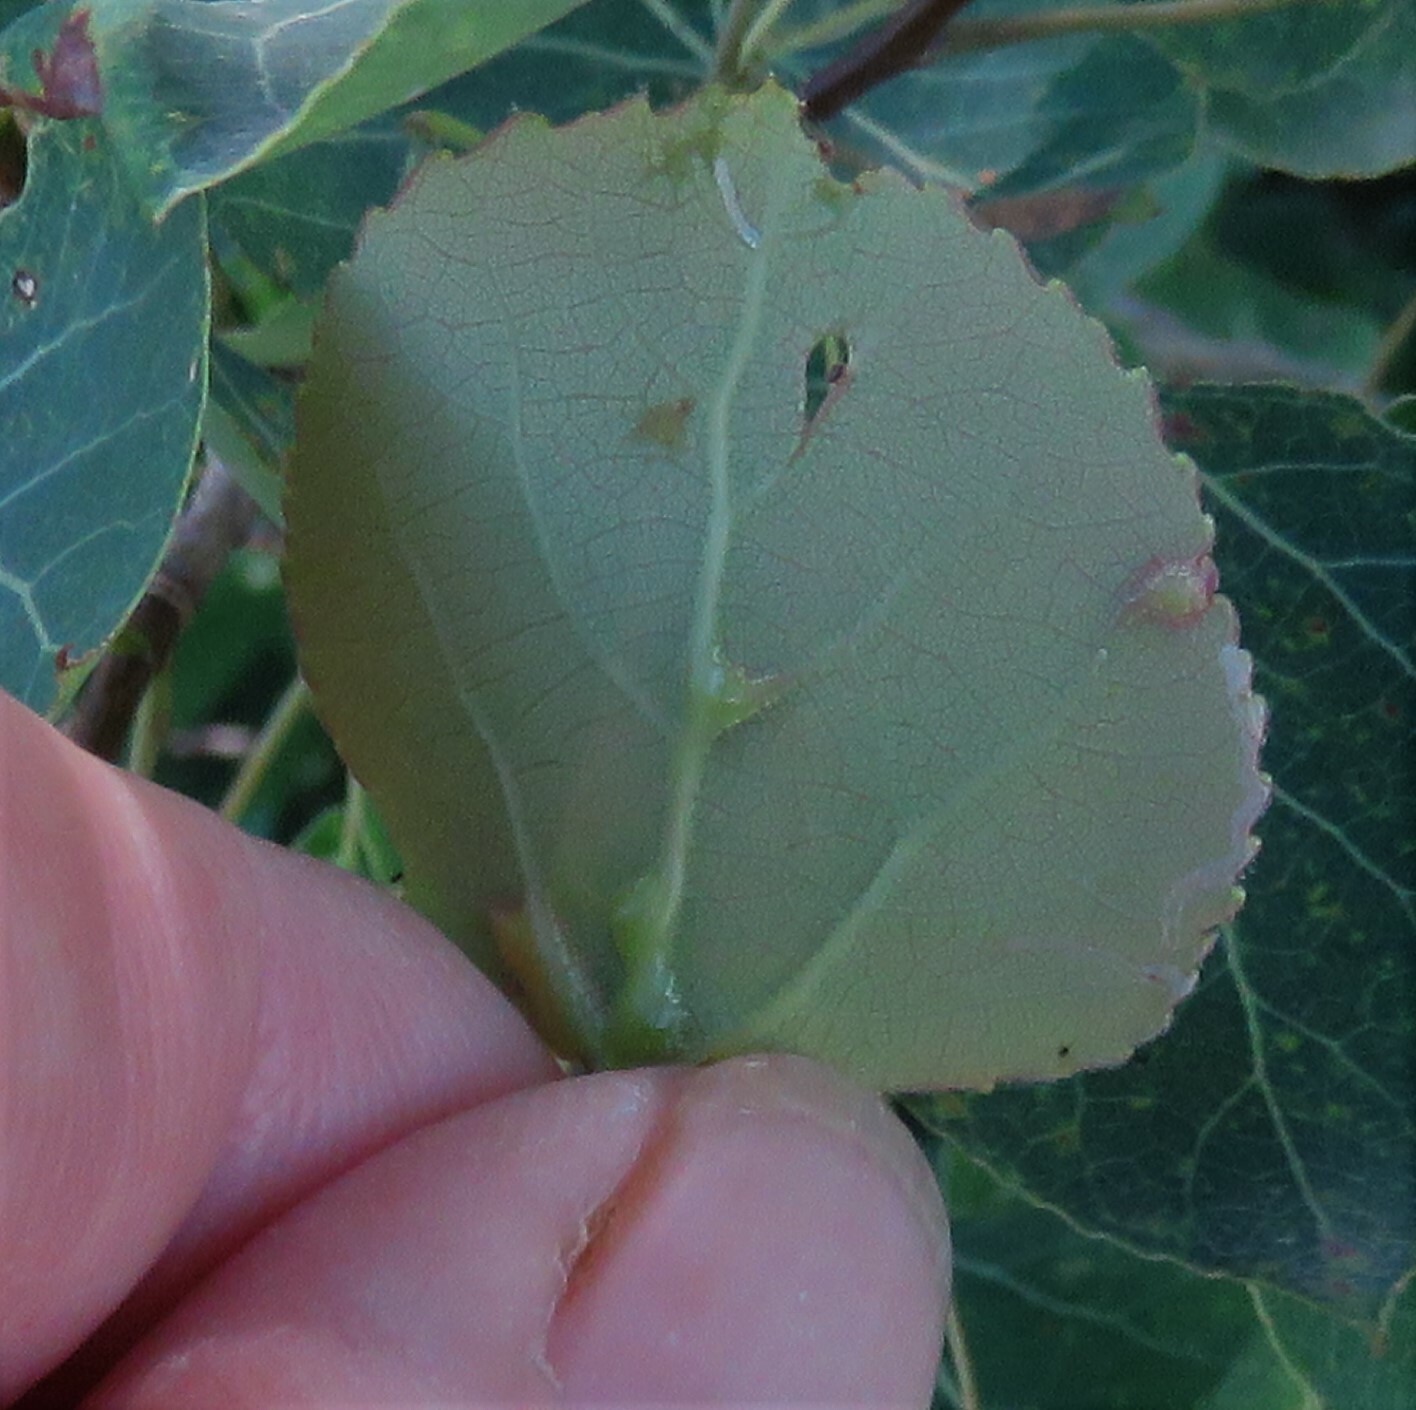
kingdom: Animalia
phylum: Arthropoda
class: Insecta
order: Diptera
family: Cecidomyiidae
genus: Harmandiola
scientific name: Harmandiola tremulae
